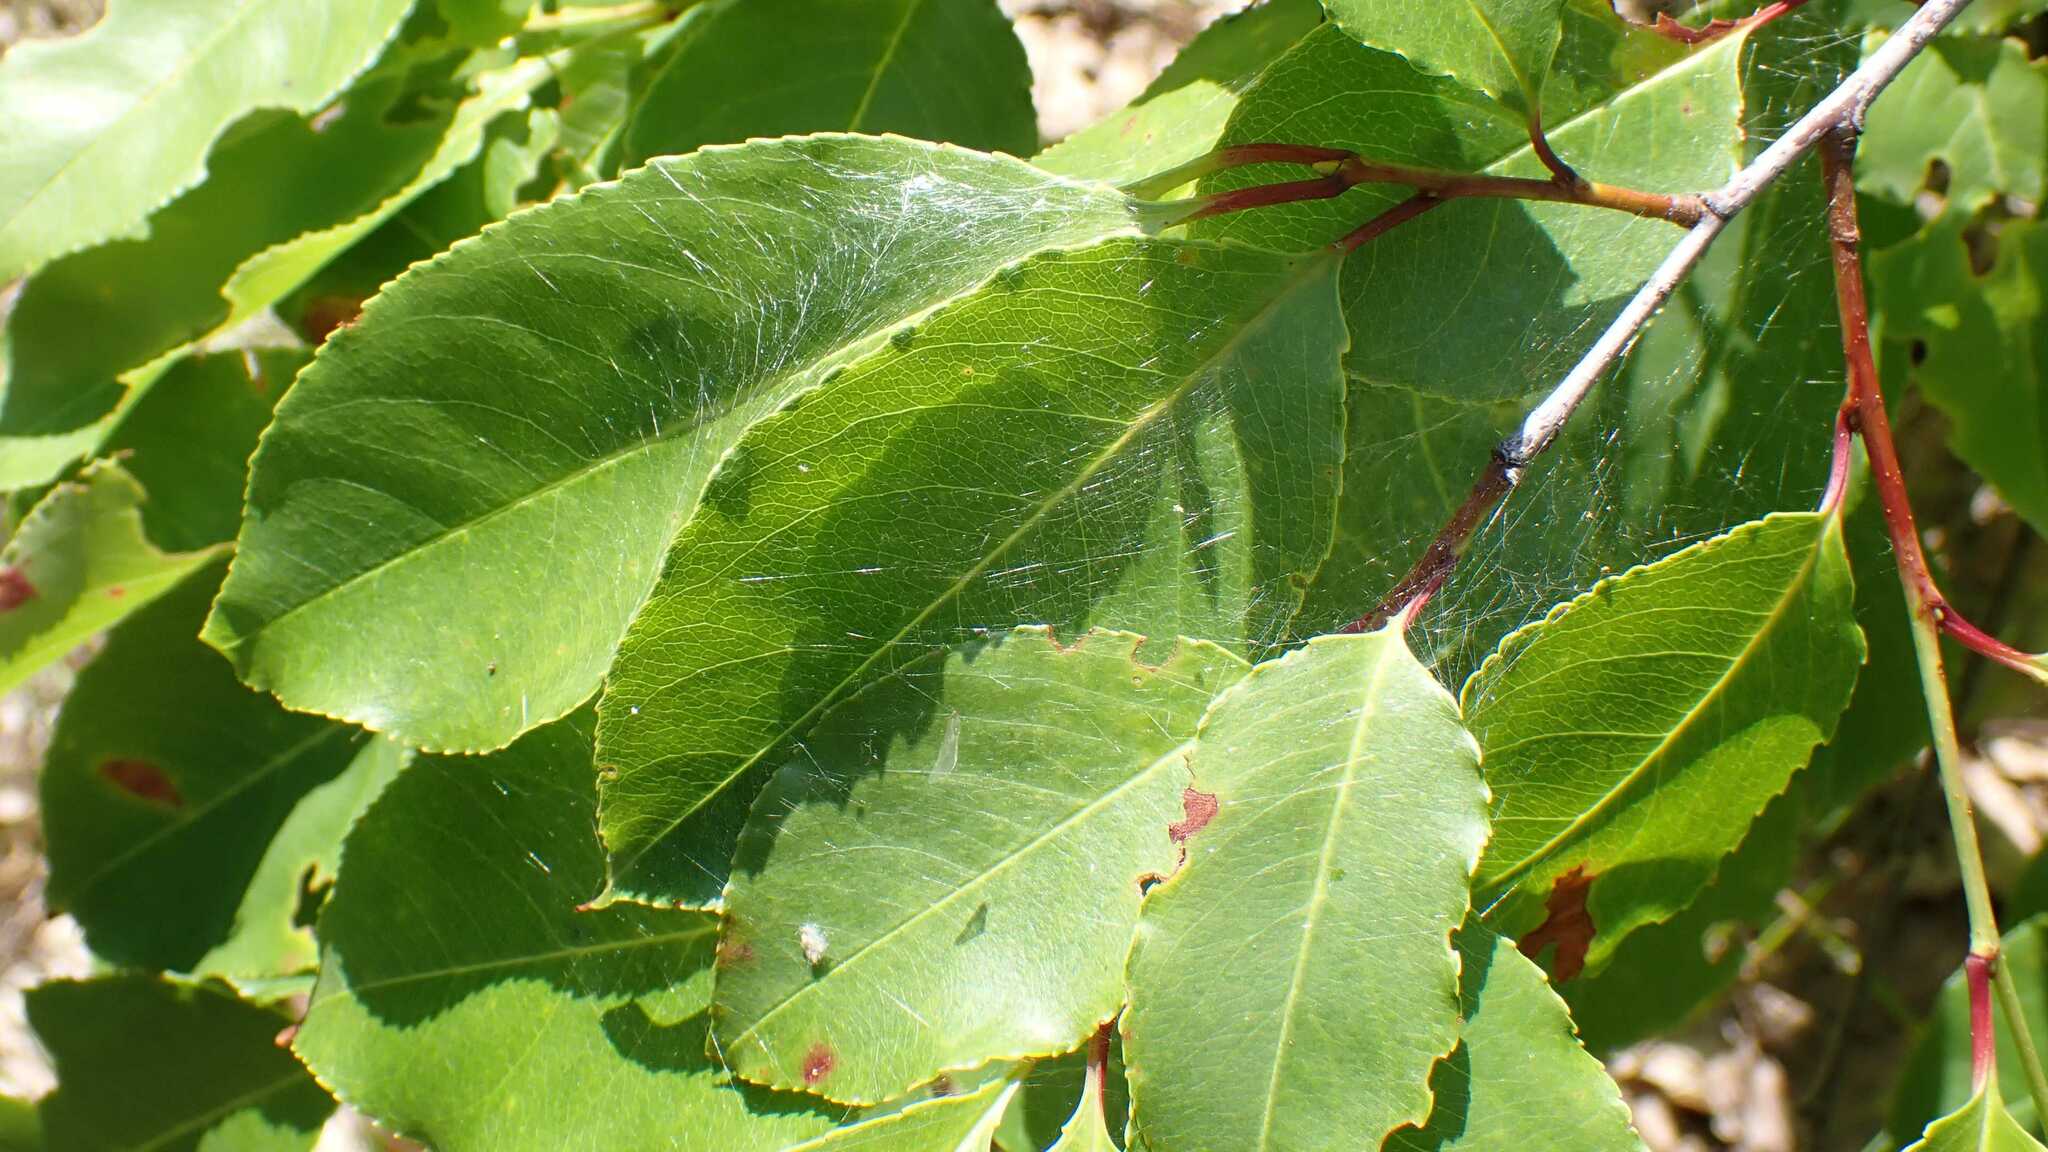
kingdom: Animalia
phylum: Arthropoda
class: Arachnida
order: Araneae
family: Pisauridae
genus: Pisaura
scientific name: Pisaura mirabilis
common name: Tent spider
